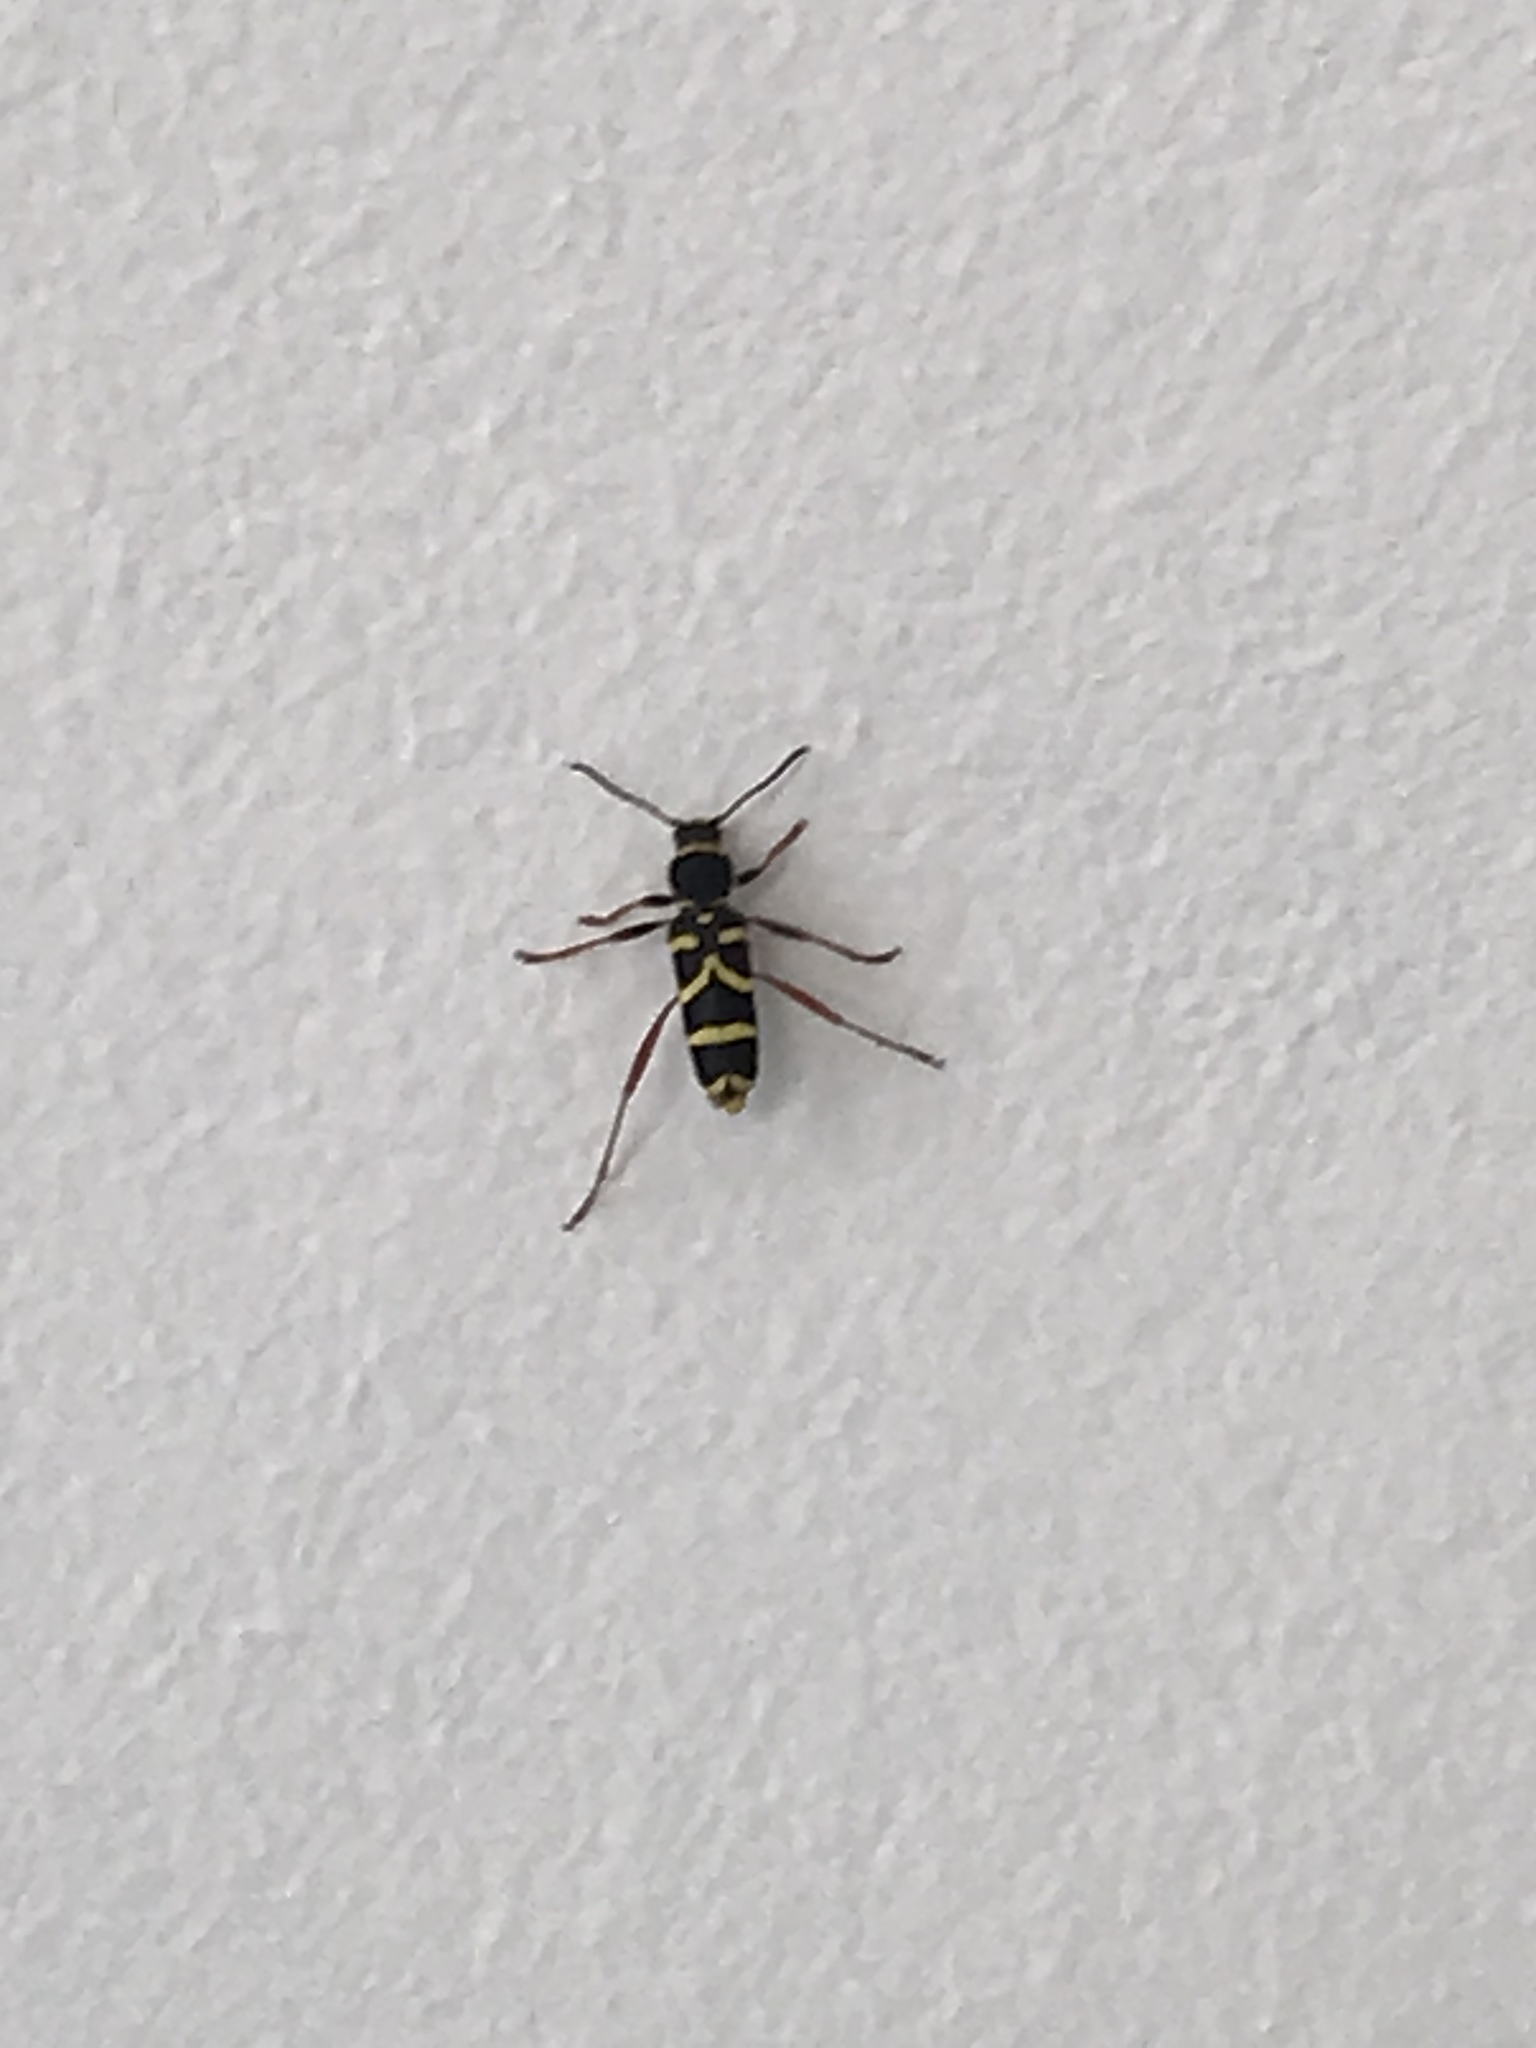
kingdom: Animalia
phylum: Arthropoda
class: Insecta
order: Coleoptera
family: Cerambycidae
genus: Clytus
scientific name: Clytus arietis
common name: Wasp beetle
